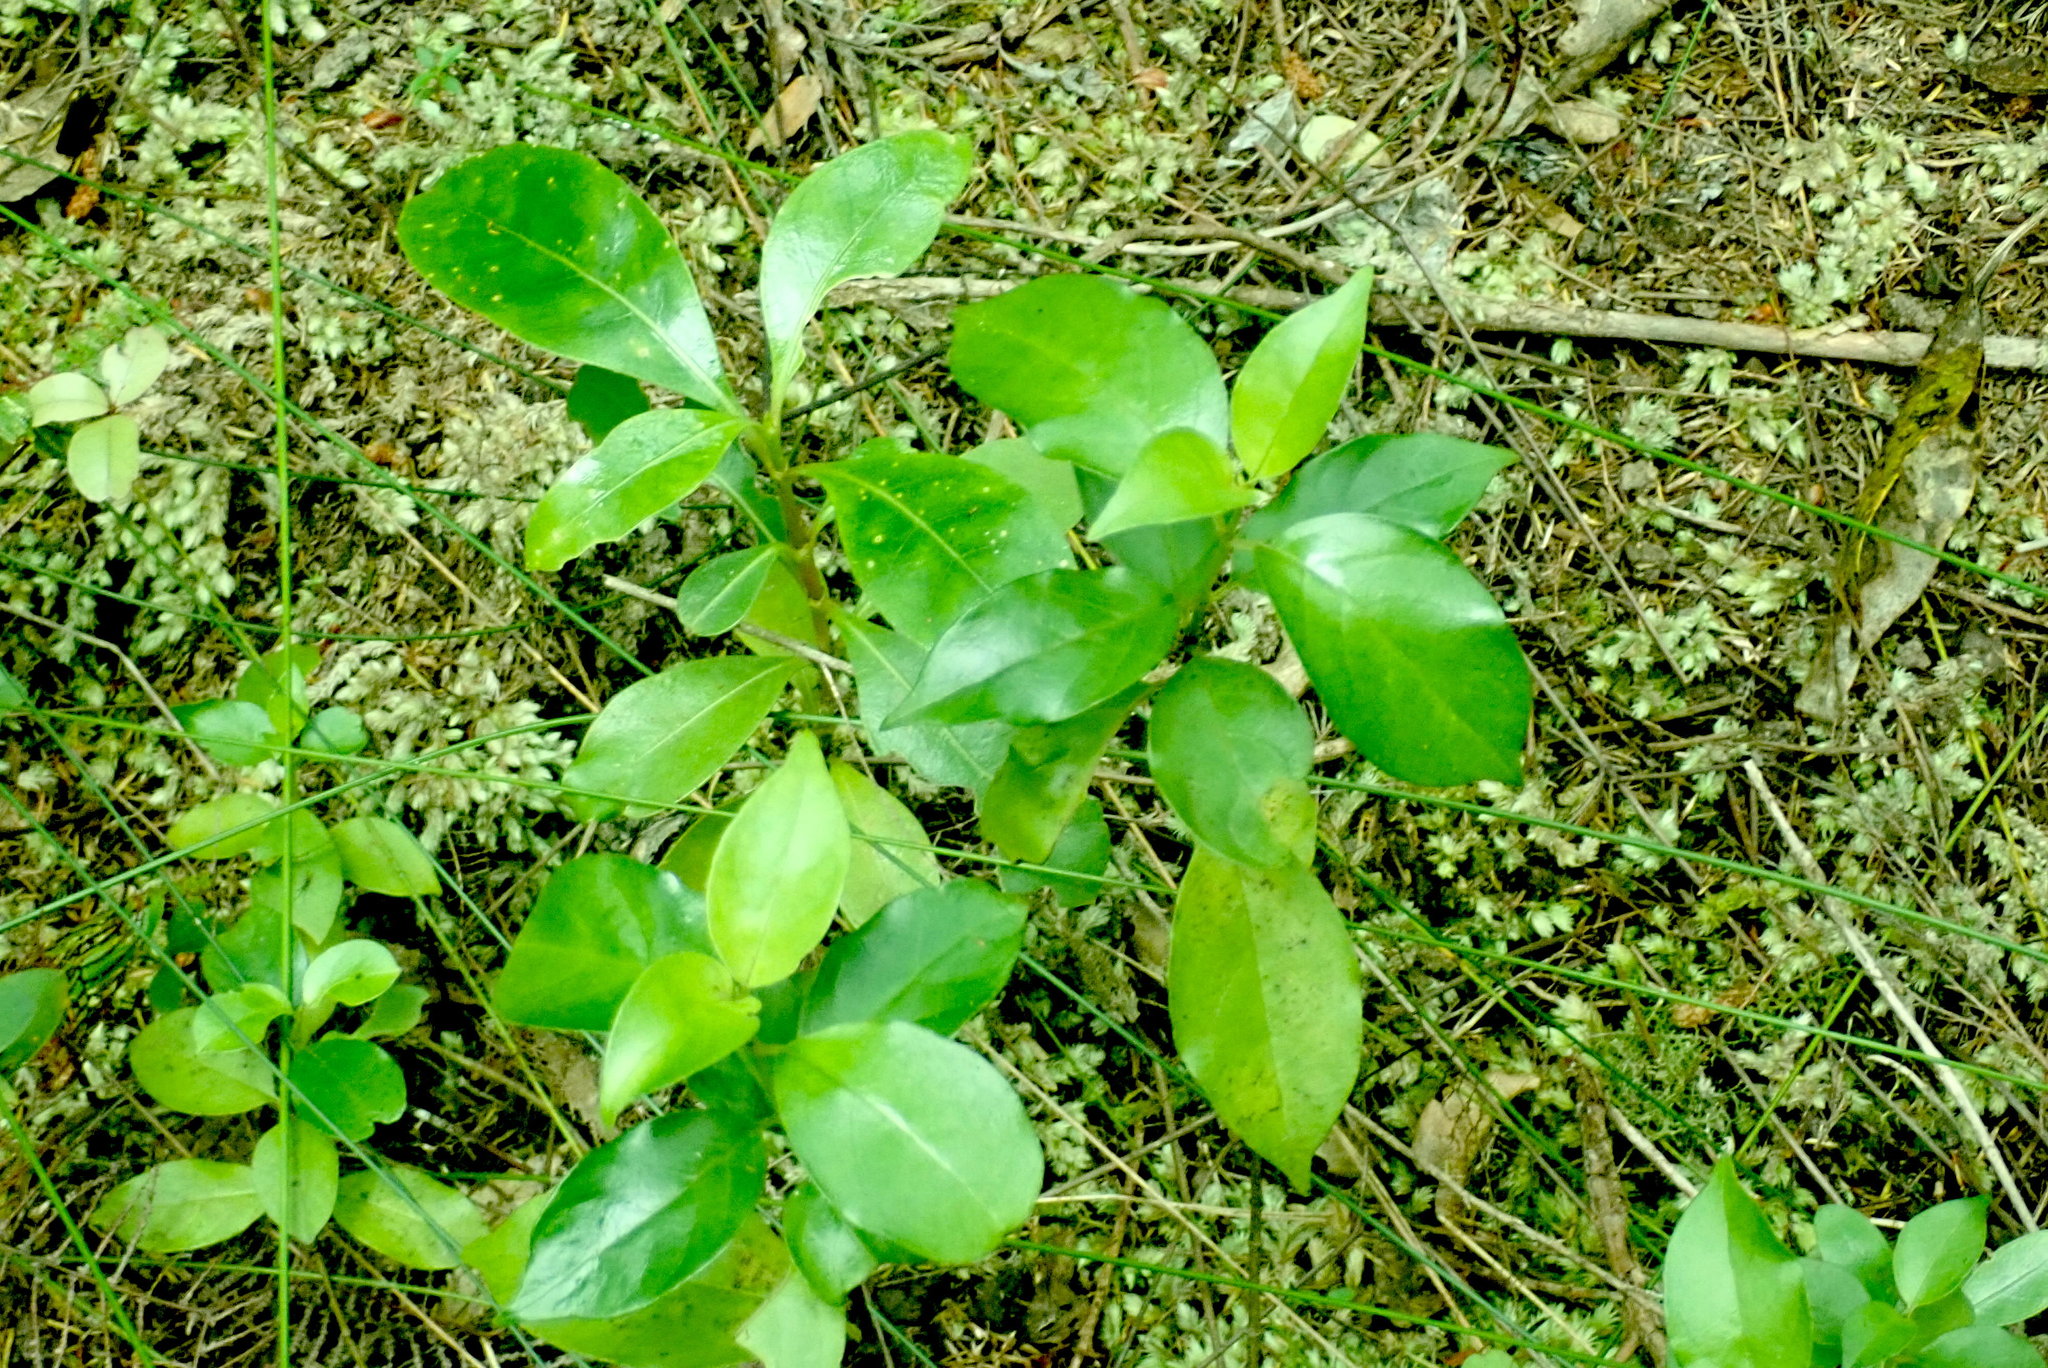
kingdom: Plantae
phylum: Tracheophyta
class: Magnoliopsida
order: Gentianales
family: Loganiaceae
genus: Geniostoma
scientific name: Geniostoma ligustrifolium
